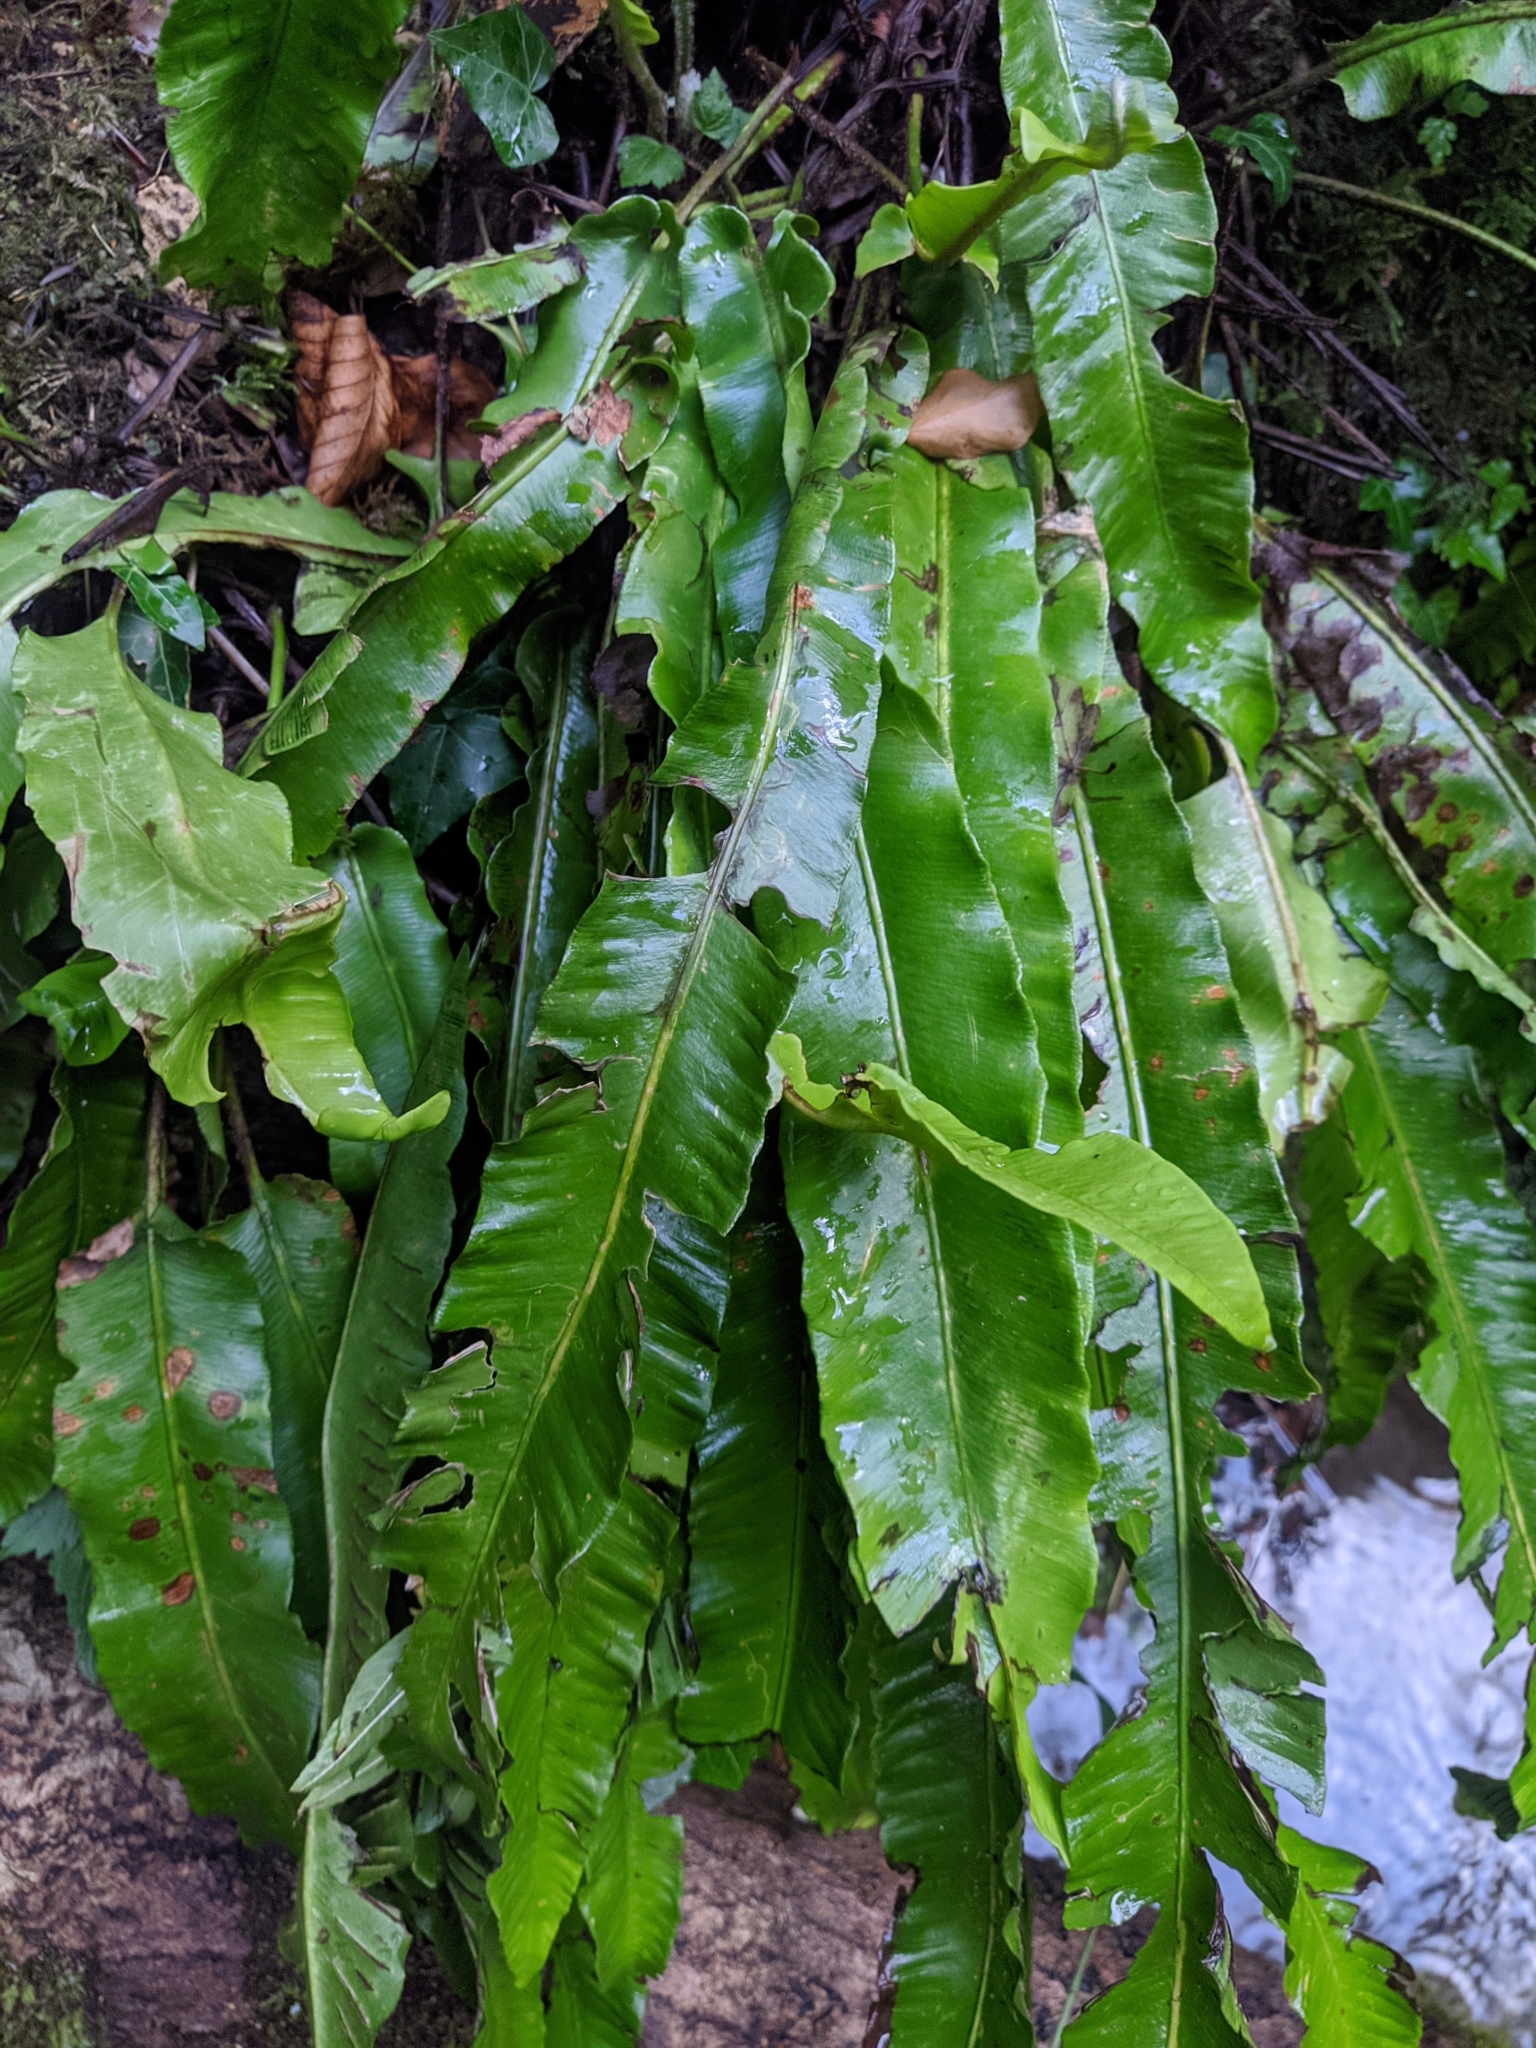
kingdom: Plantae
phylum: Tracheophyta
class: Polypodiopsida
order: Polypodiales
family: Aspleniaceae
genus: Asplenium
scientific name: Asplenium scolopendrium
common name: Hart's-tongue fern
